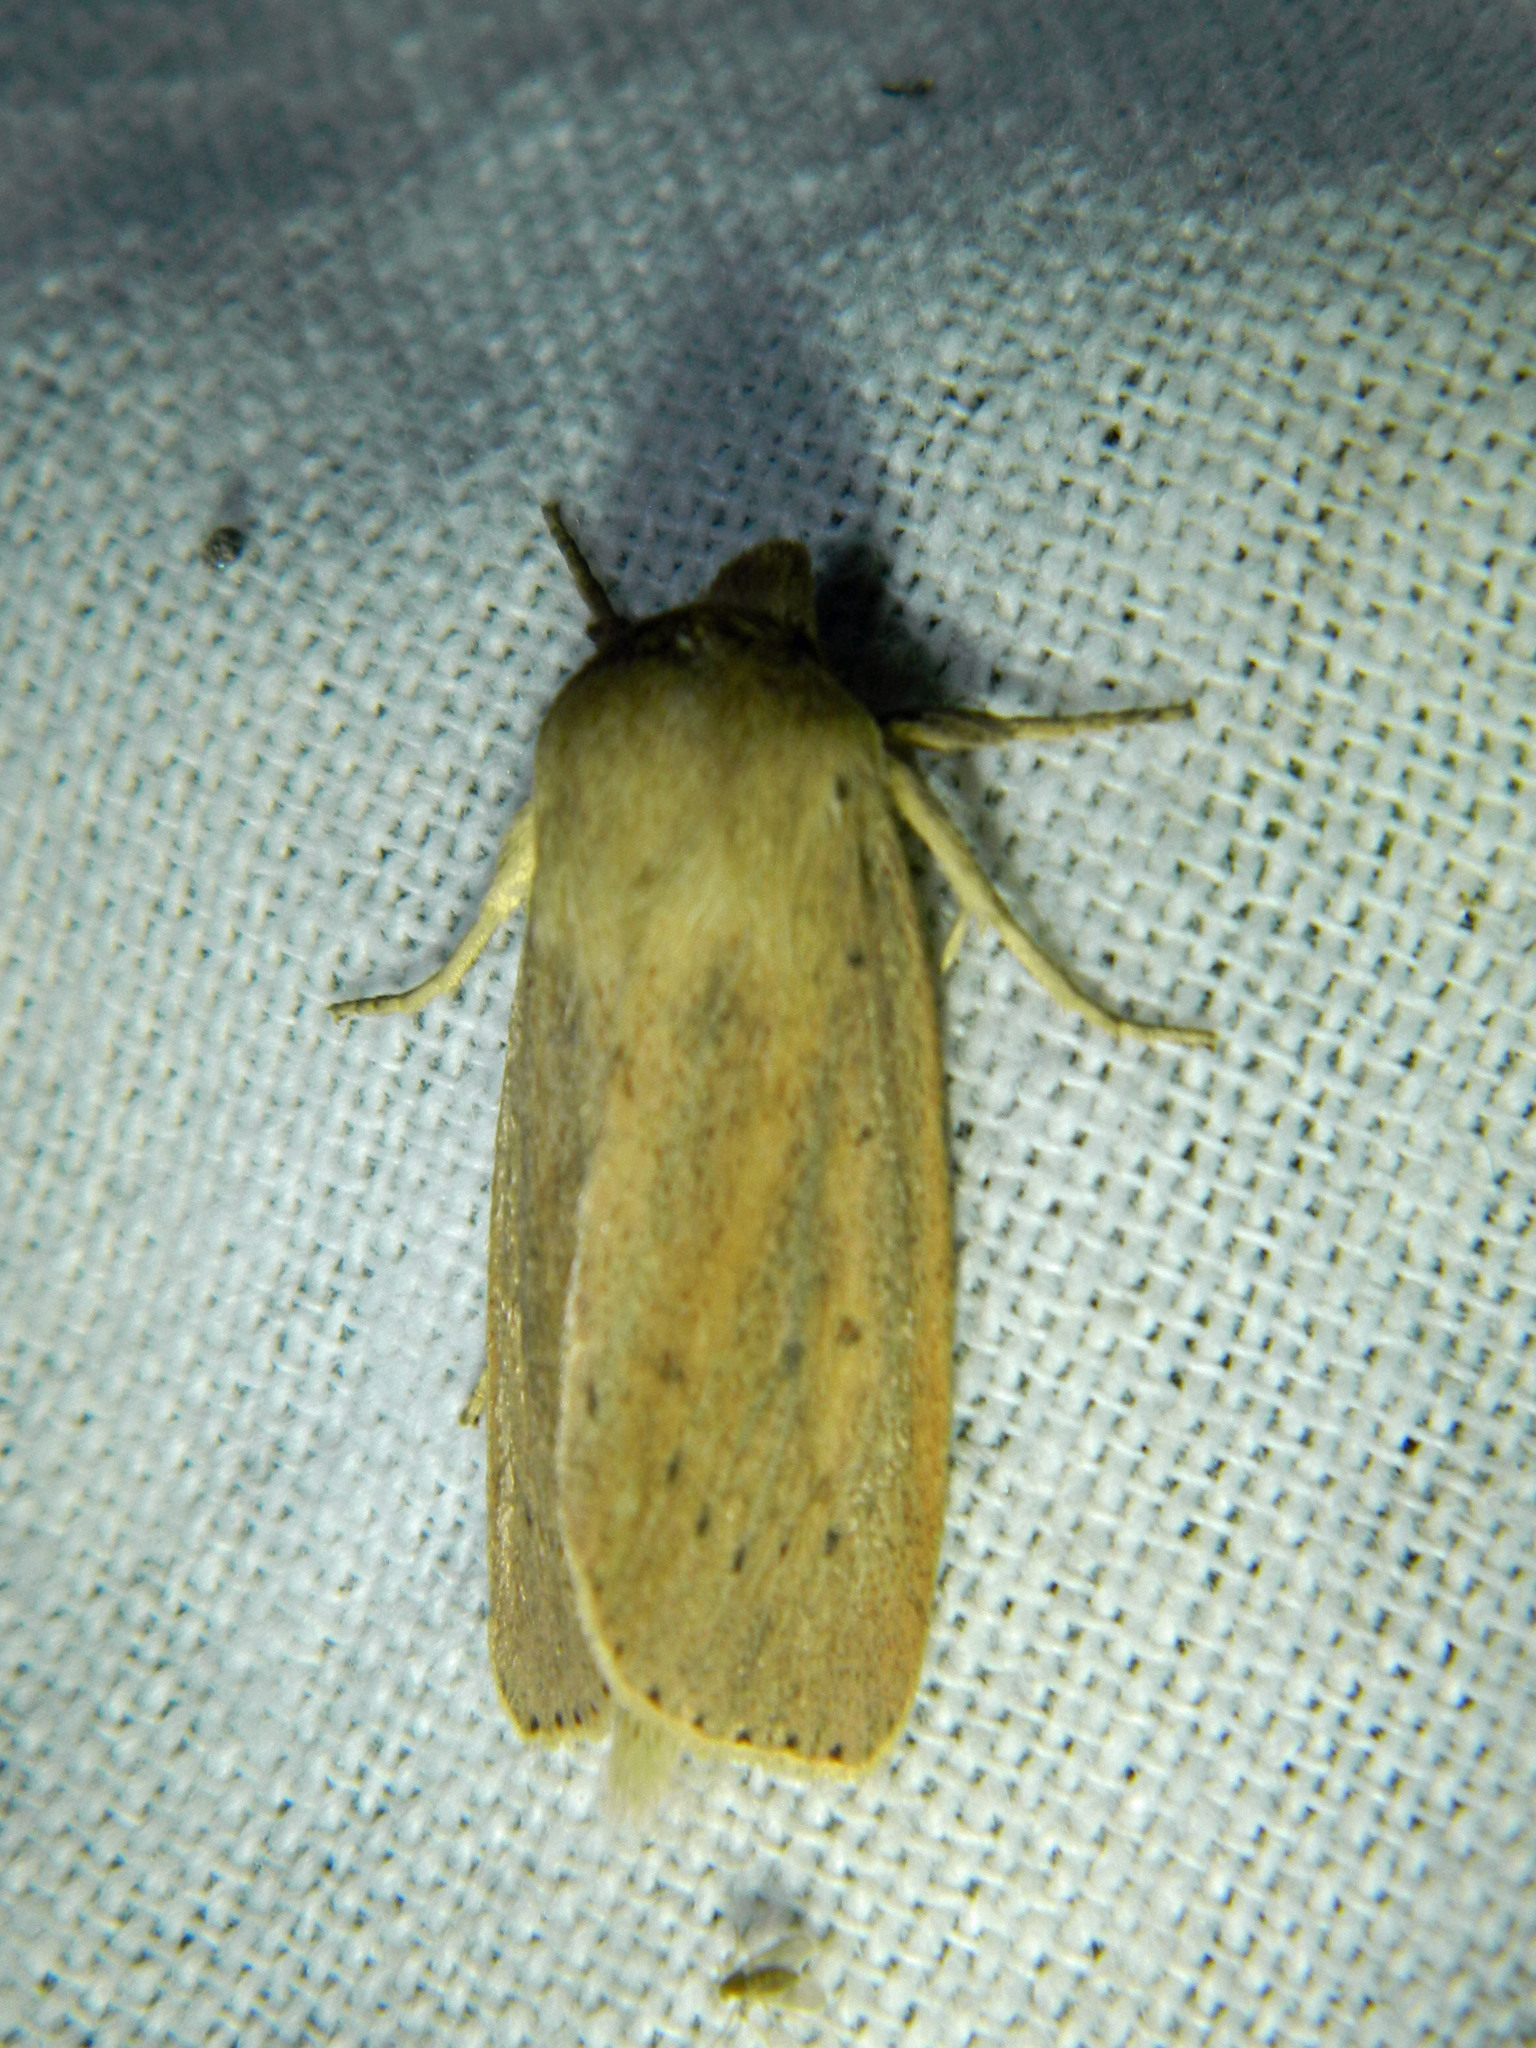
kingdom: Animalia
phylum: Arthropoda
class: Insecta
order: Lepidoptera
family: Noctuidae
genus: Globia
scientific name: Globia oblonga
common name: Oblong sedge borer moth
